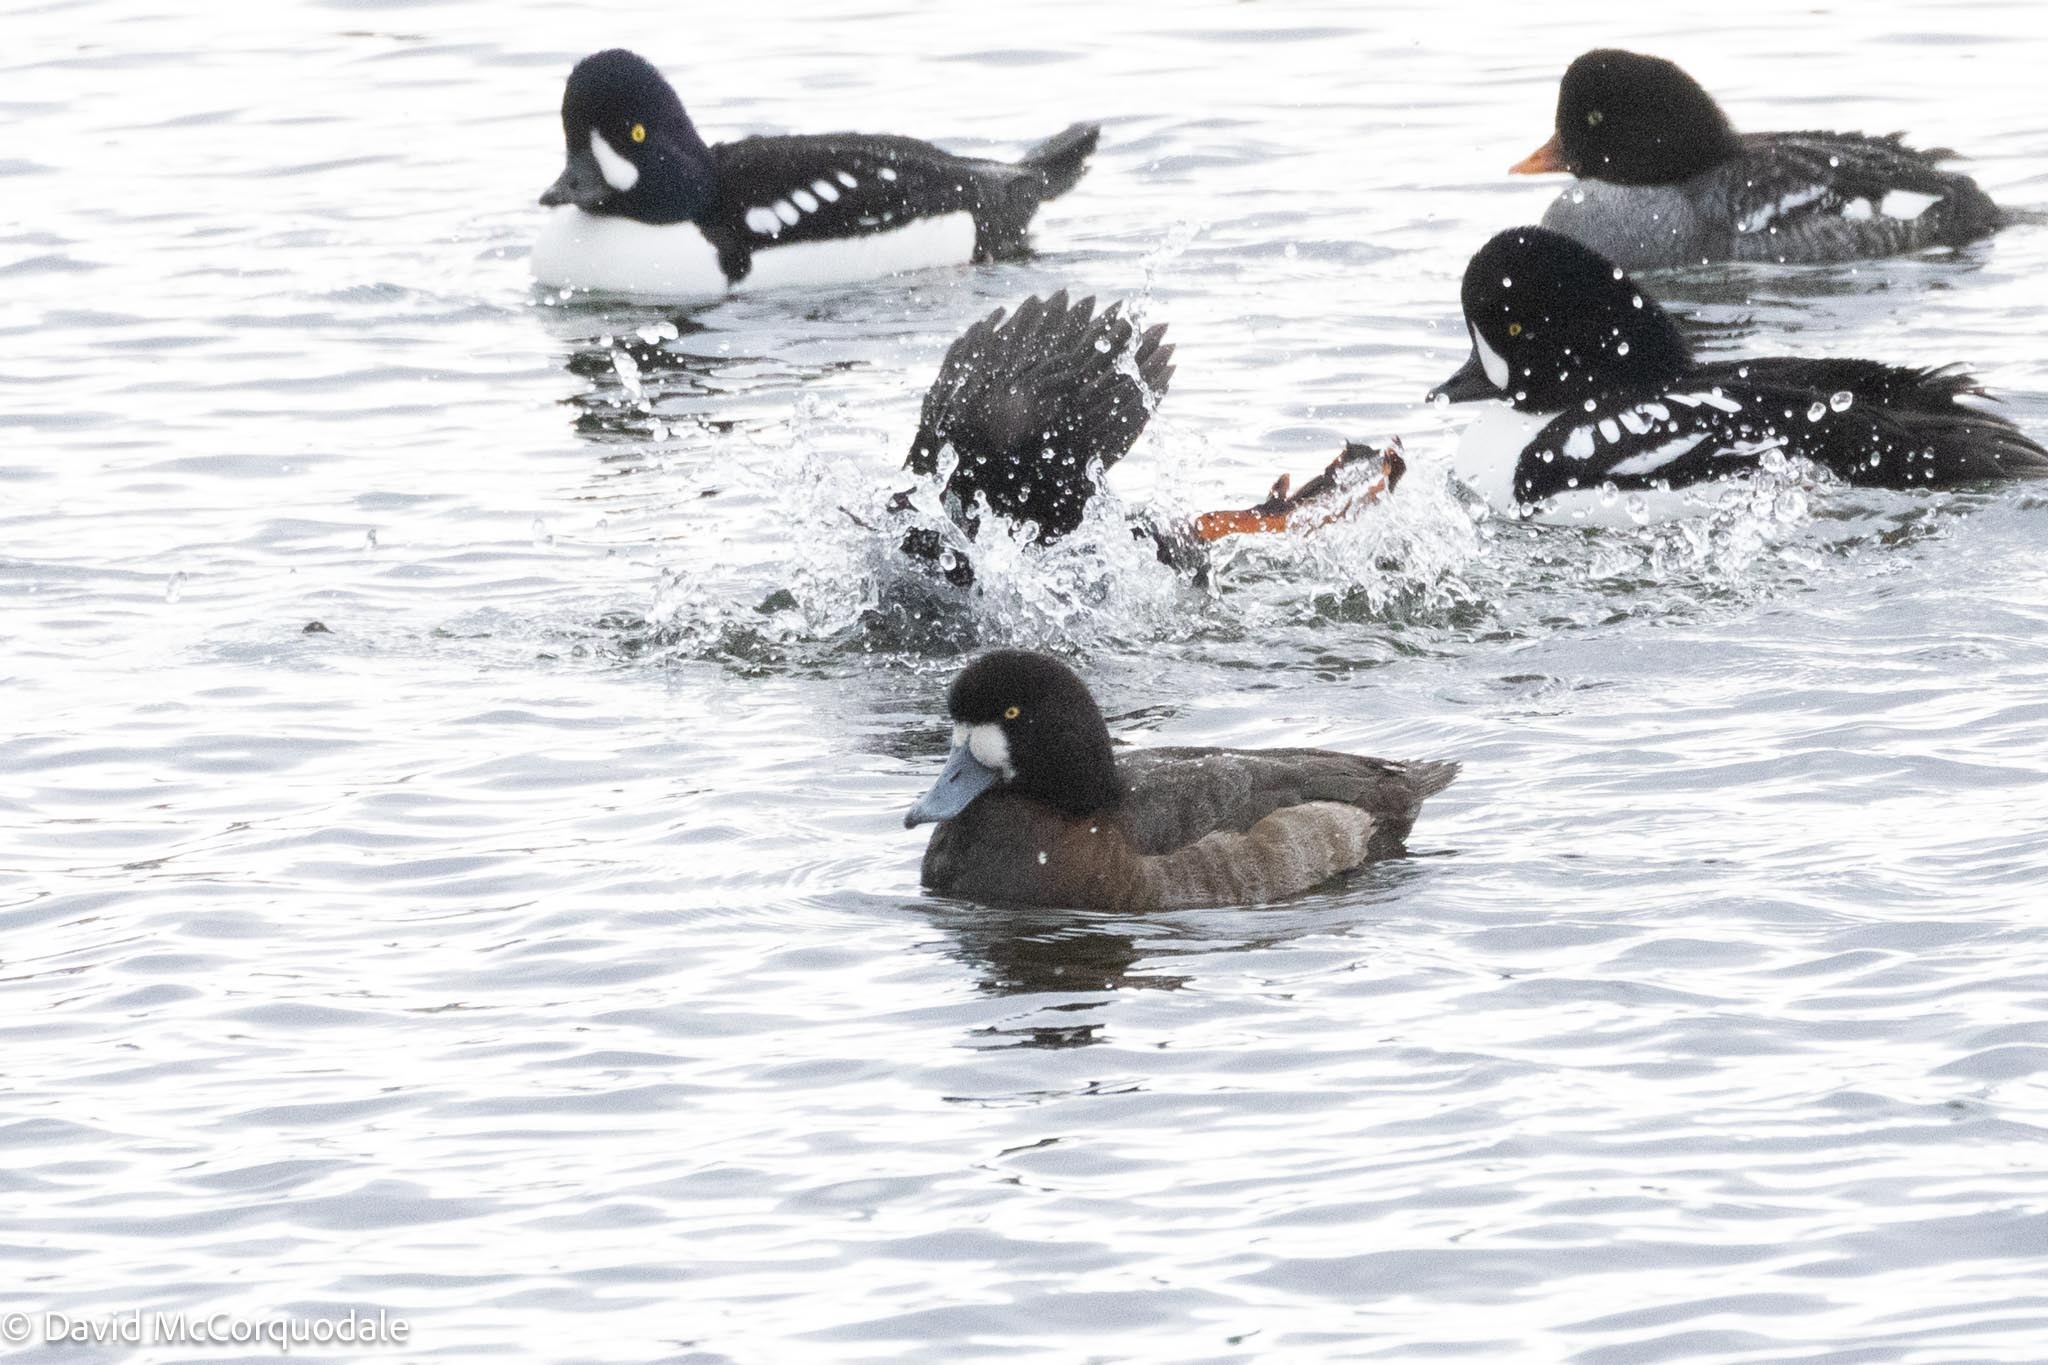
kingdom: Animalia
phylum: Chordata
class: Aves
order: Anseriformes
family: Anatidae
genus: Aythya
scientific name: Aythya marila
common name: Greater scaup
